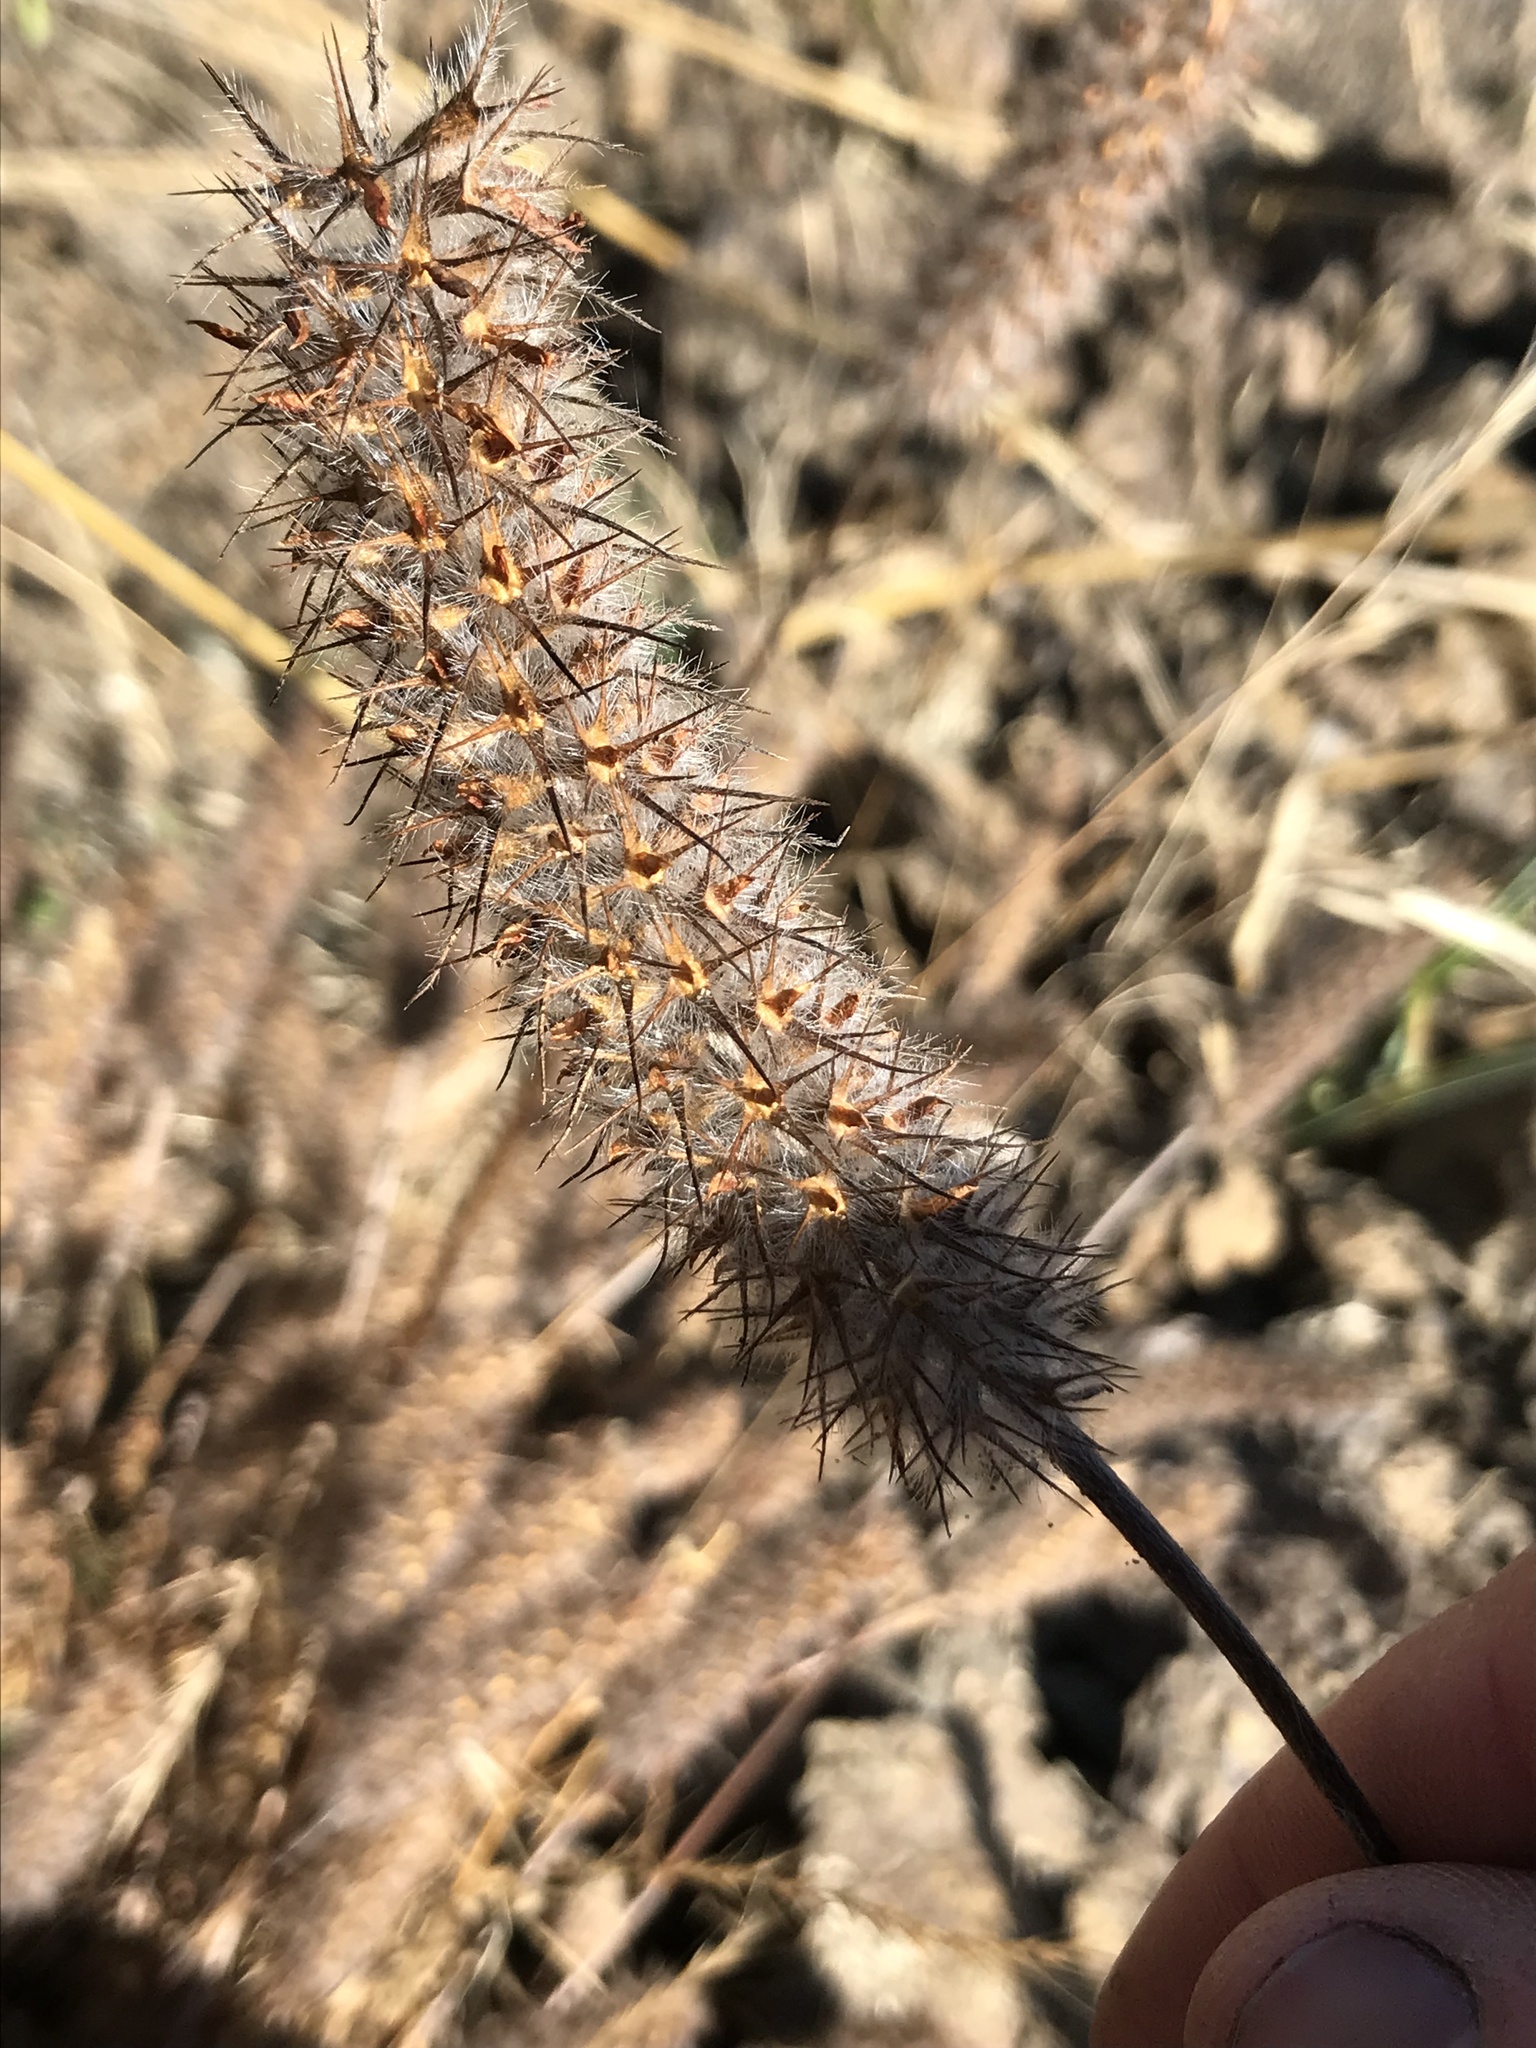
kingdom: Plantae
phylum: Tracheophyta
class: Magnoliopsida
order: Fabales
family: Fabaceae
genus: Trifolium
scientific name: Trifolium angustifolium
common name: Narrow clover
